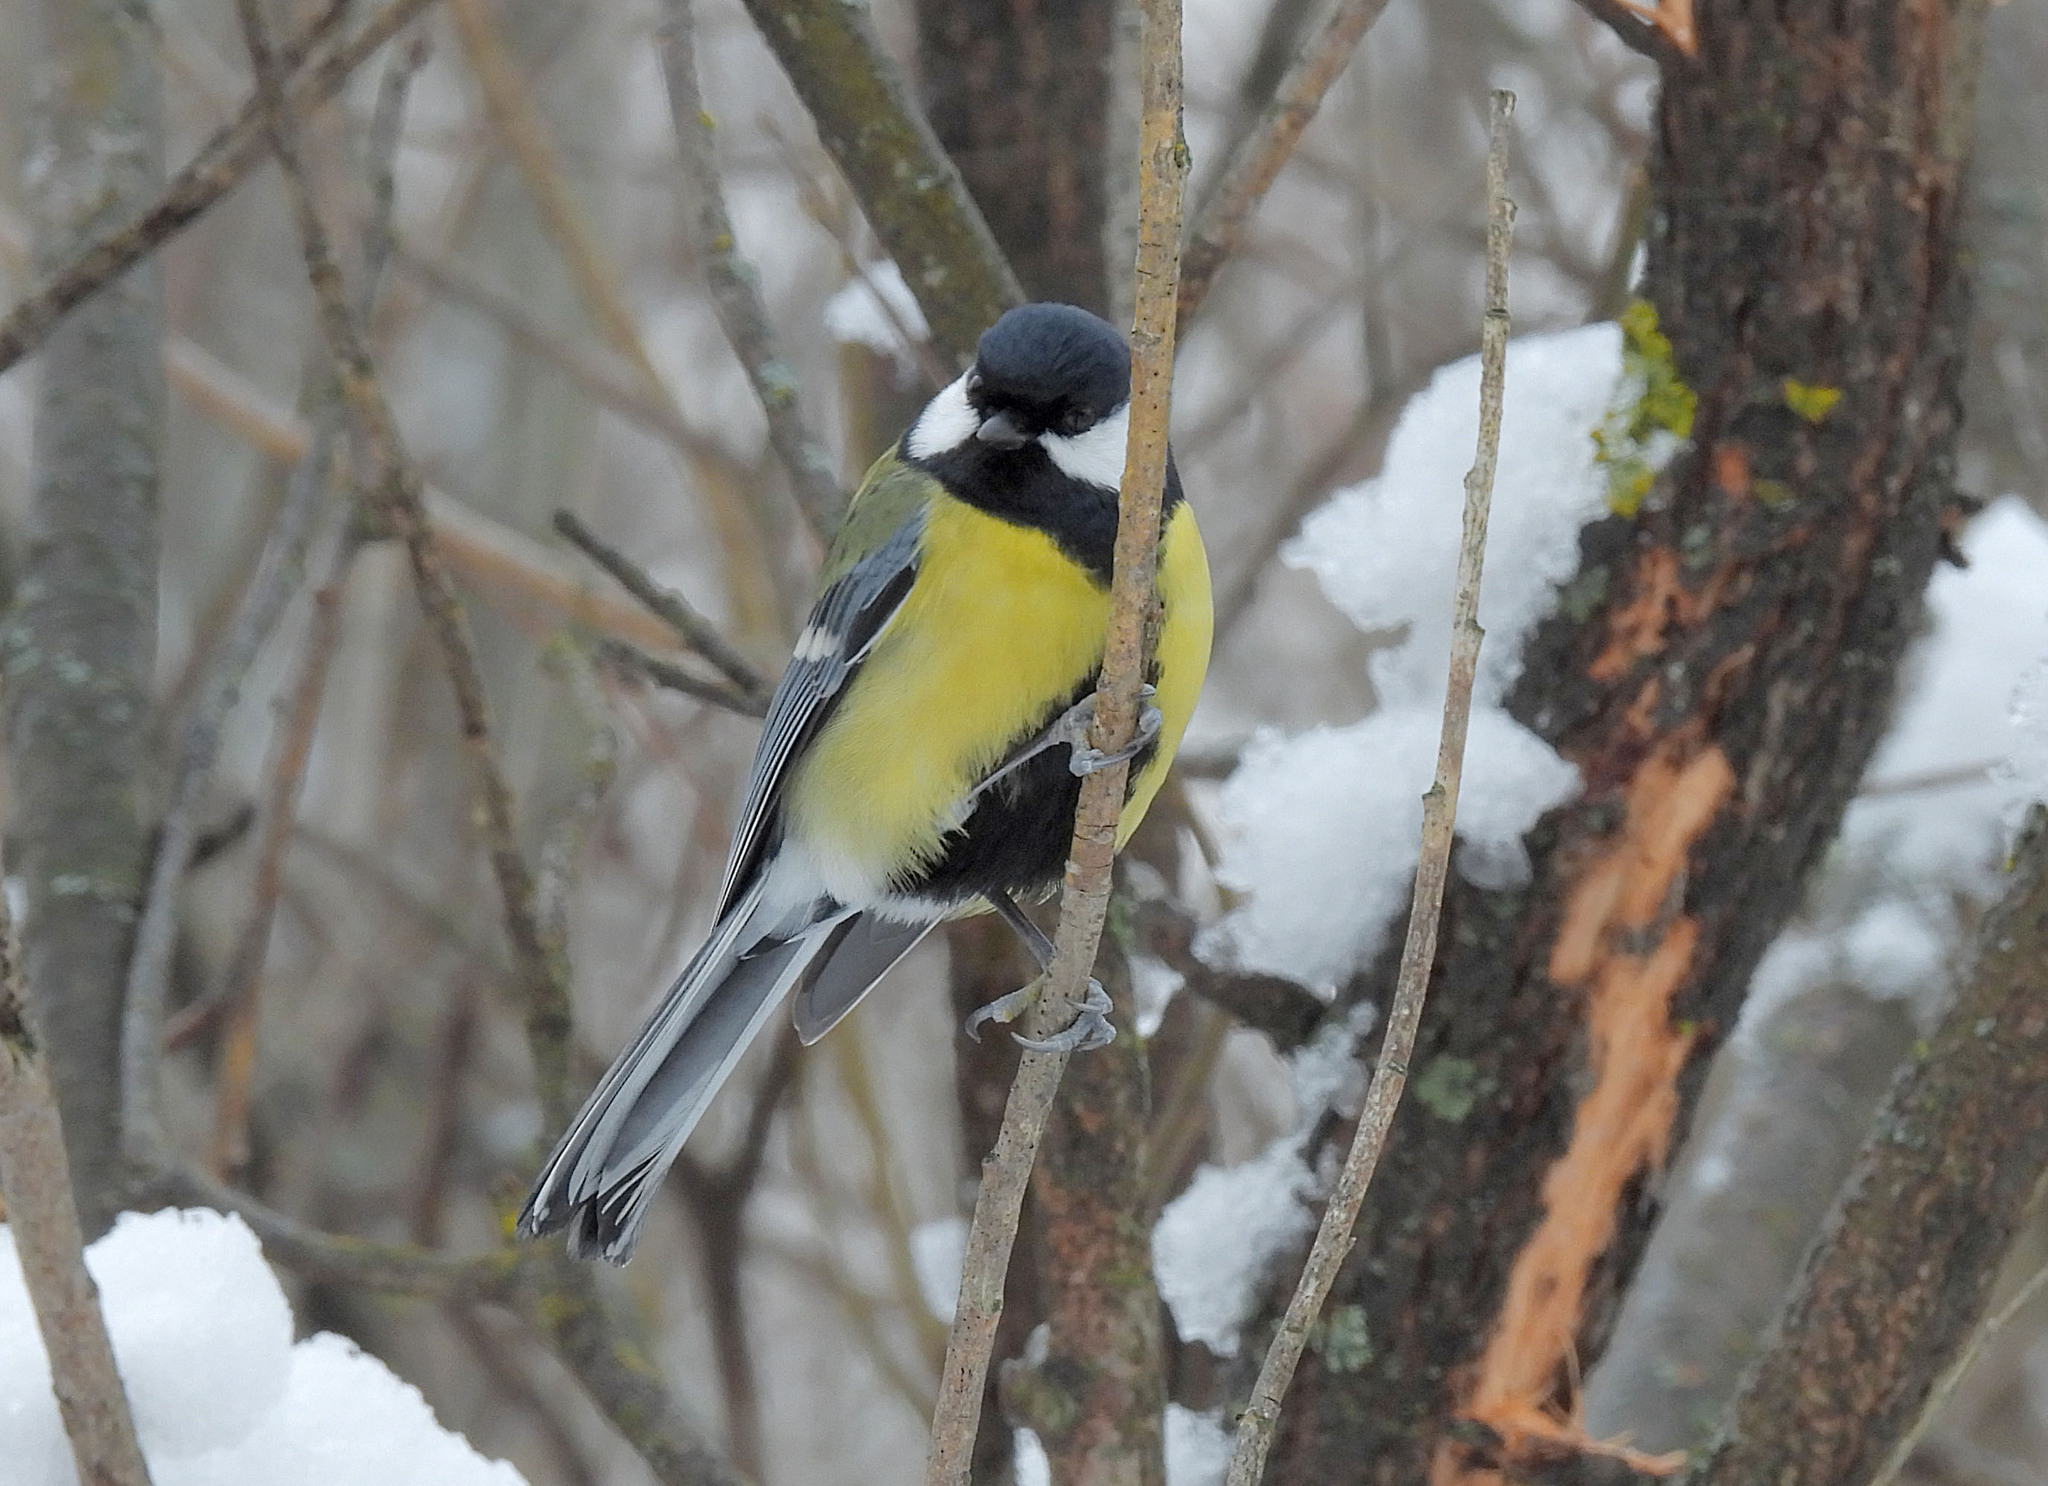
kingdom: Animalia
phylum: Chordata
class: Aves
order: Passeriformes
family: Paridae
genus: Parus
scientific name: Parus major
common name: Great tit
